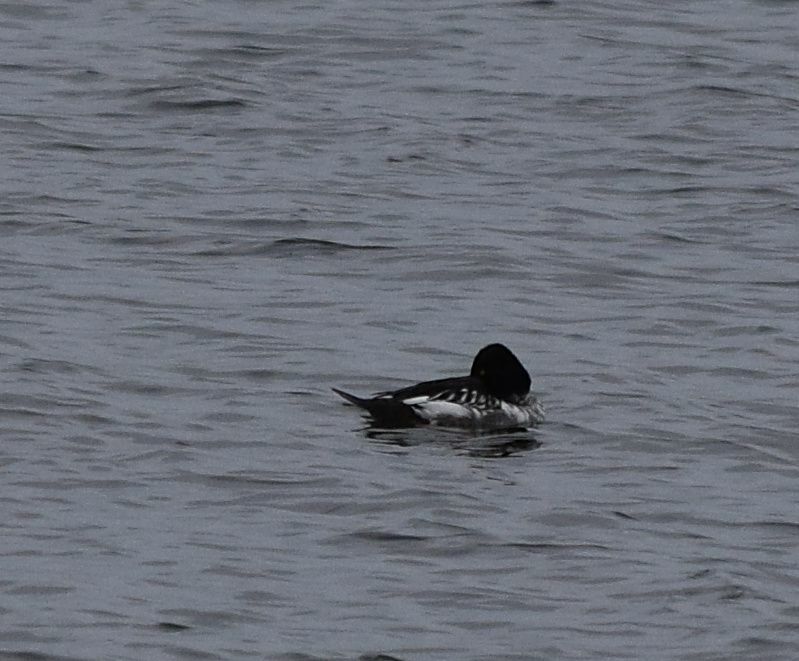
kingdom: Animalia
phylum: Chordata
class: Aves
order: Anseriformes
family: Anatidae
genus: Bucephala
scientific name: Bucephala clangula
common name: Common goldeneye
